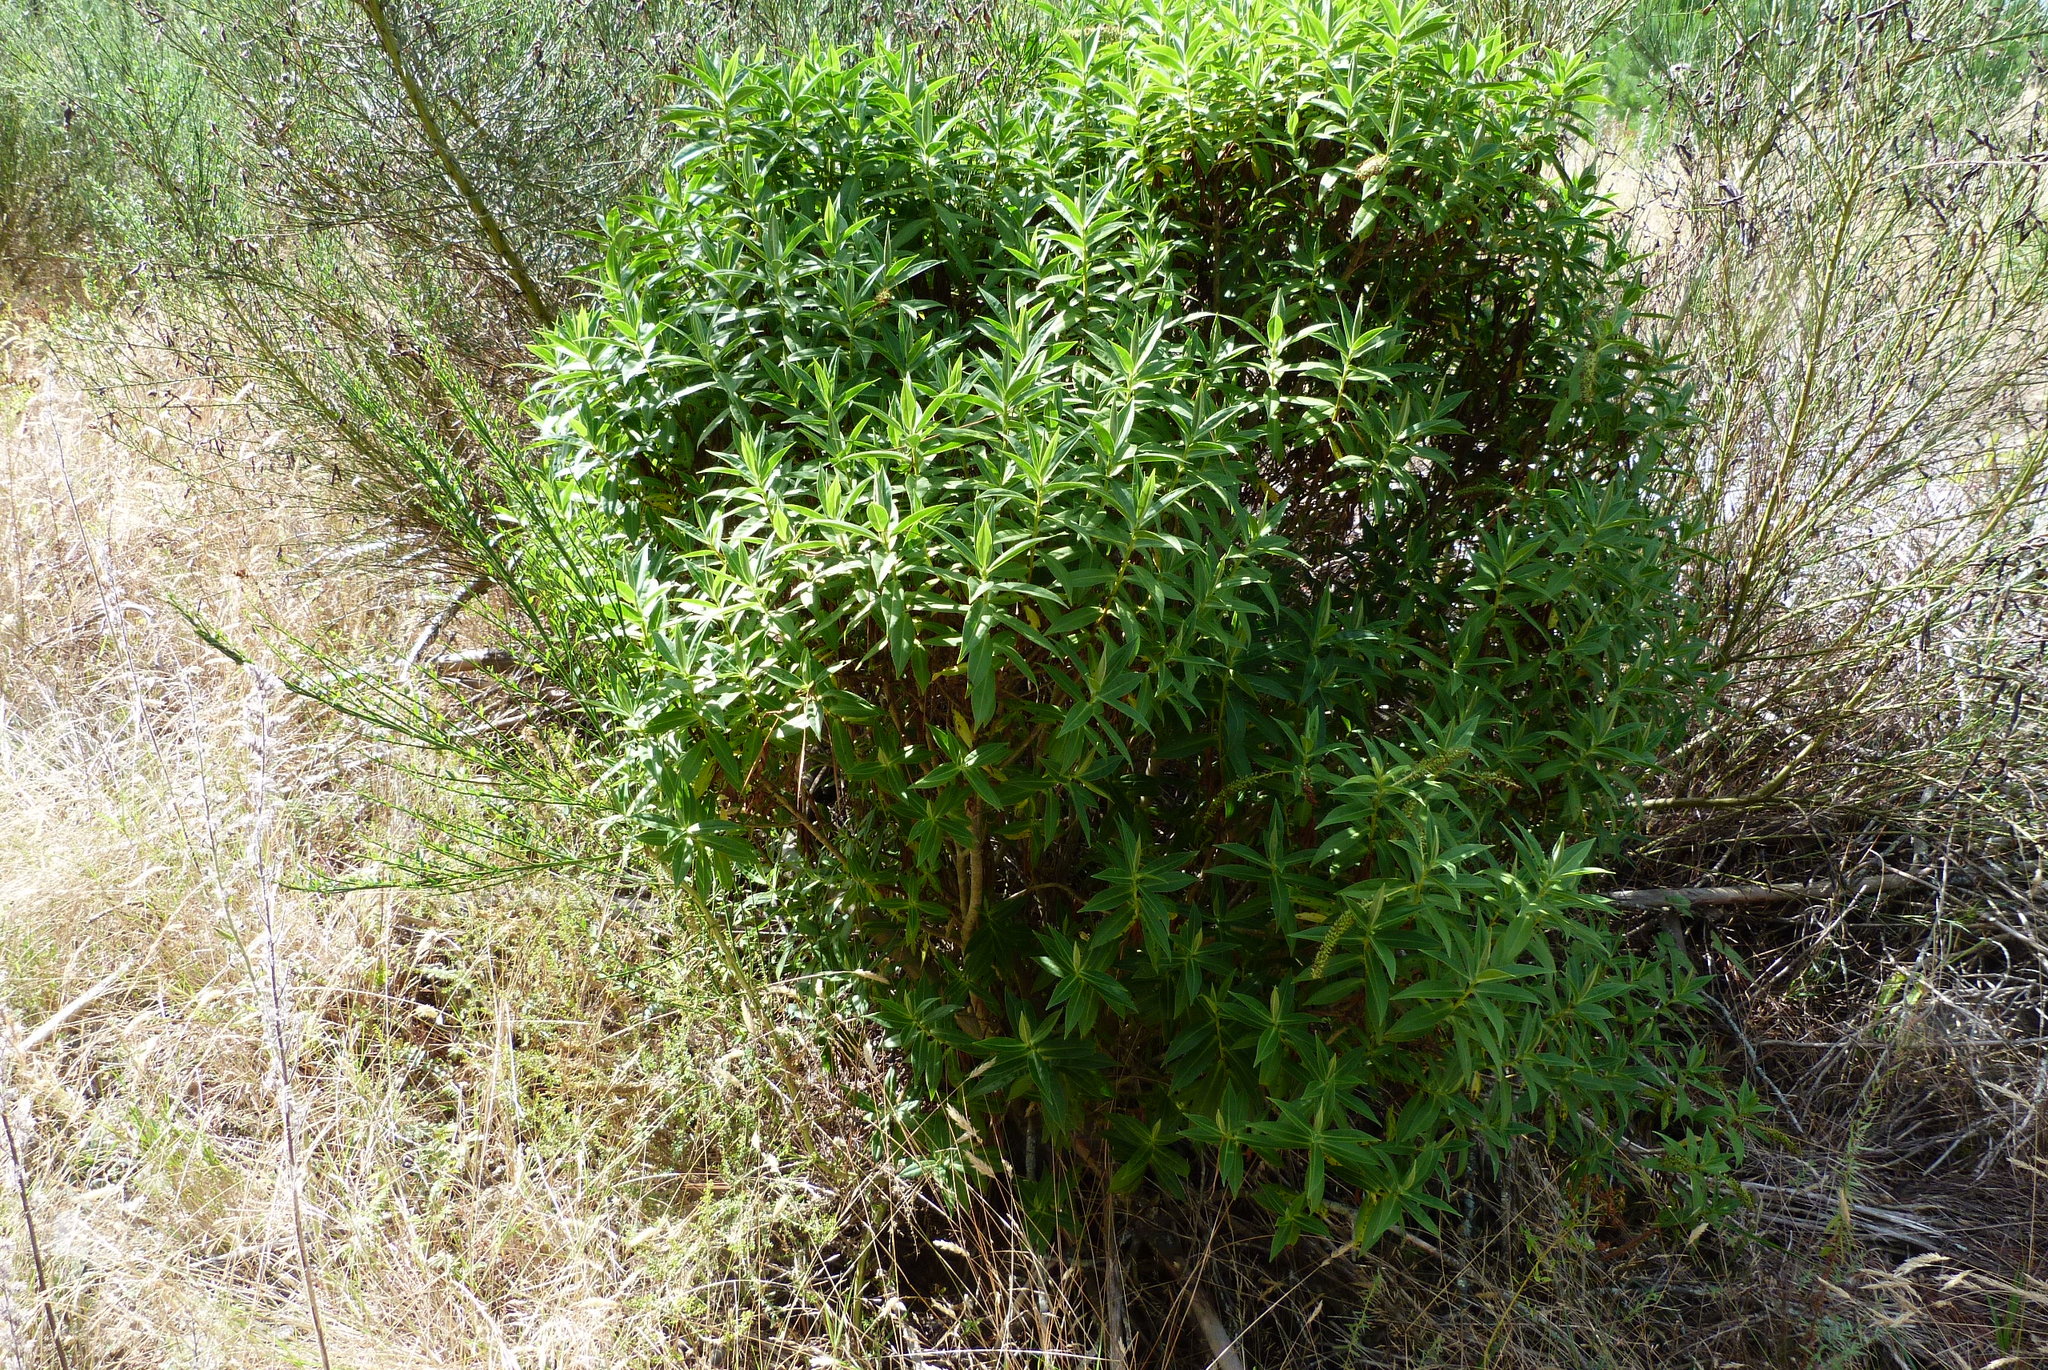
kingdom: Plantae
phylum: Tracheophyta
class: Magnoliopsida
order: Lamiales
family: Plantaginaceae
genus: Veronica
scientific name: Veronica salicifolia
